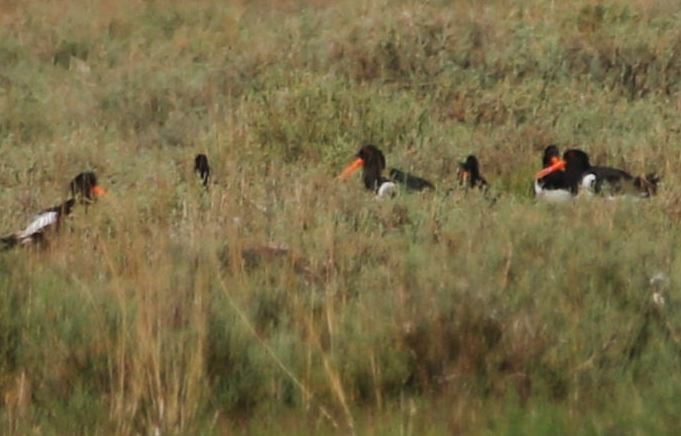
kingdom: Animalia
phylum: Chordata
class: Aves
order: Charadriiformes
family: Haematopodidae
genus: Haematopus
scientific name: Haematopus ostralegus
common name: Eurasian oystercatcher
